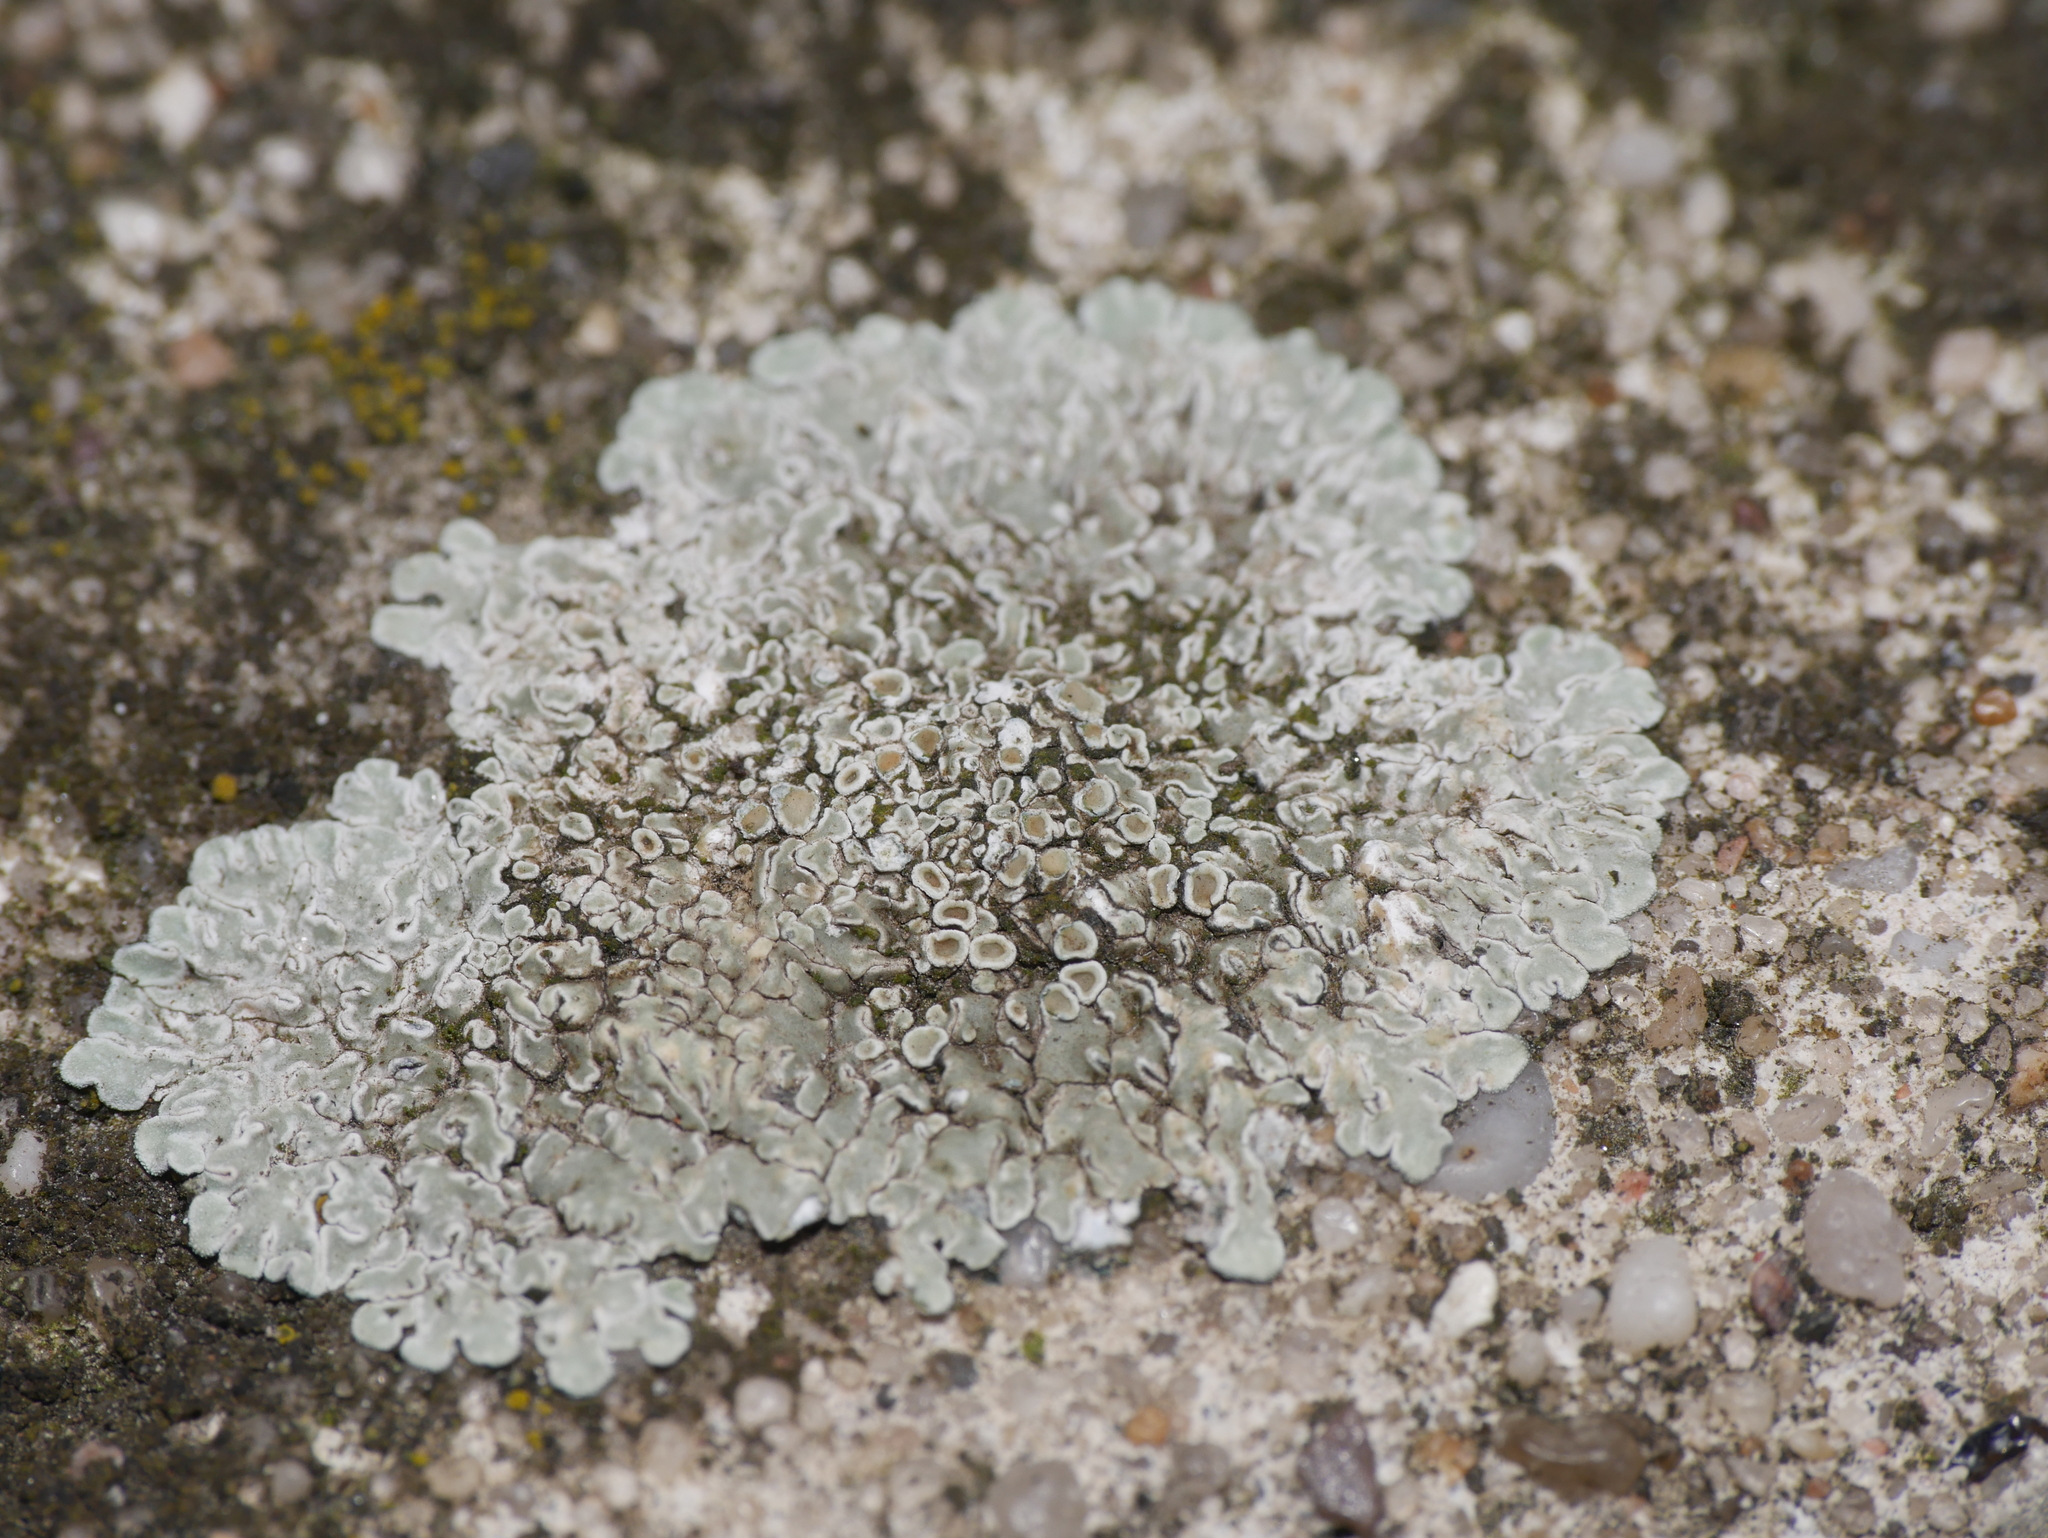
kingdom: Fungi
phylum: Ascomycota
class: Lecanoromycetes
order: Lecanorales
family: Lecanoraceae
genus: Protoparmeliopsis
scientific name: Protoparmeliopsis muralis
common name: Stonewall rim lichen
